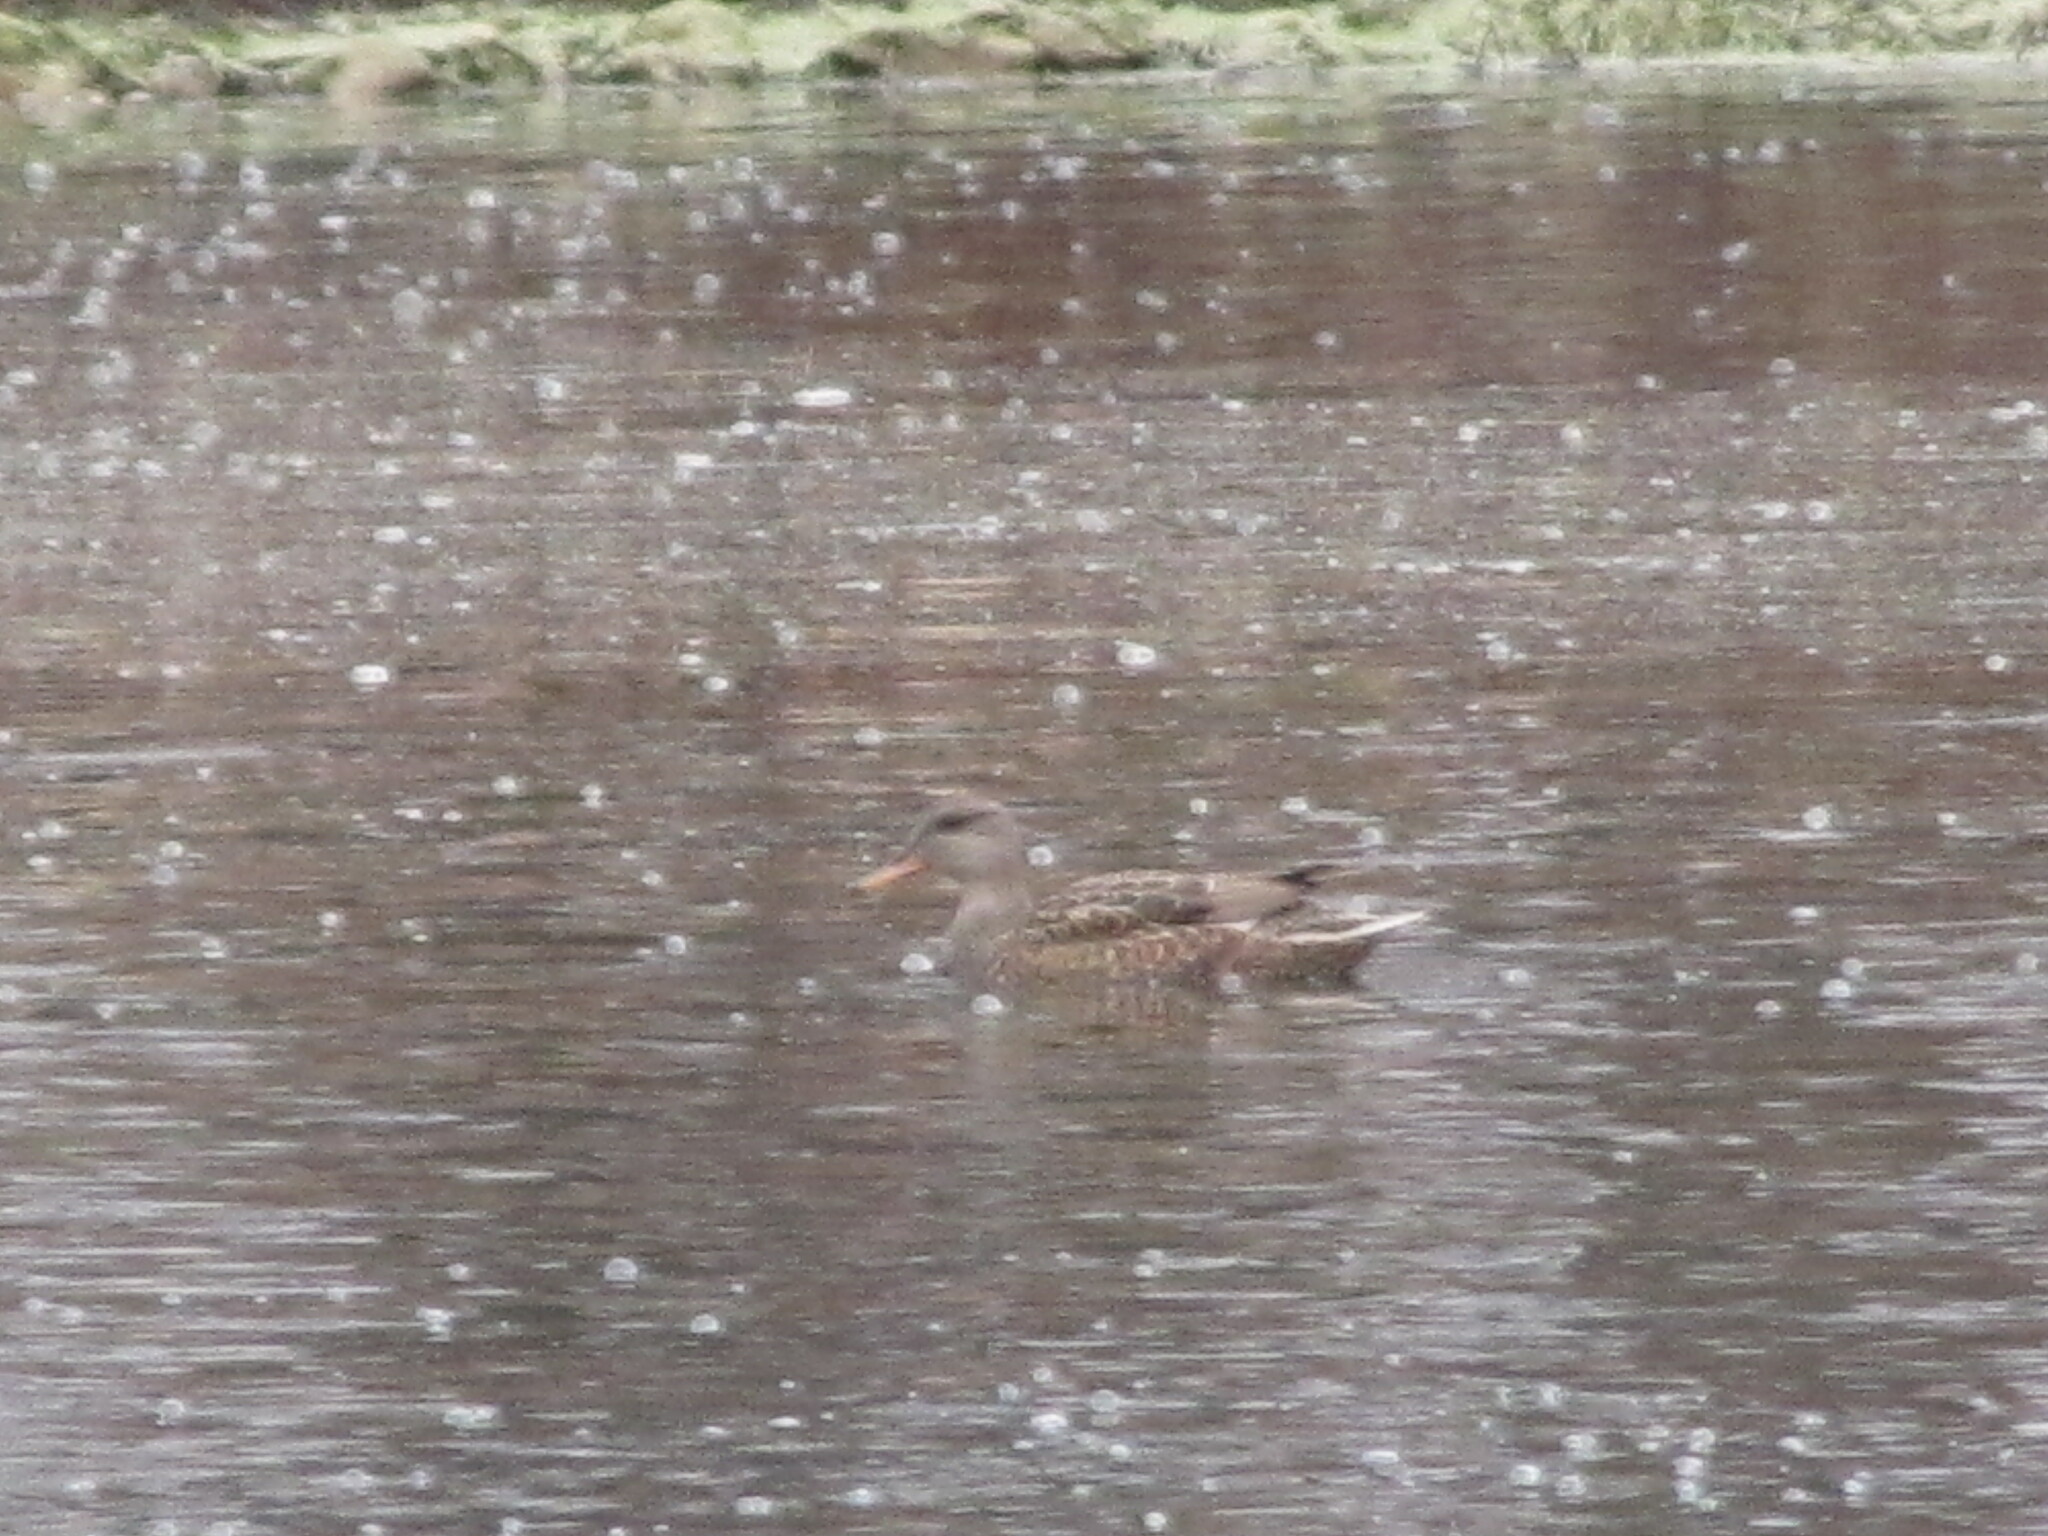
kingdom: Animalia
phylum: Chordata
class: Aves
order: Anseriformes
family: Anatidae
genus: Mareca
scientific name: Mareca strepera
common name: Gadwall
